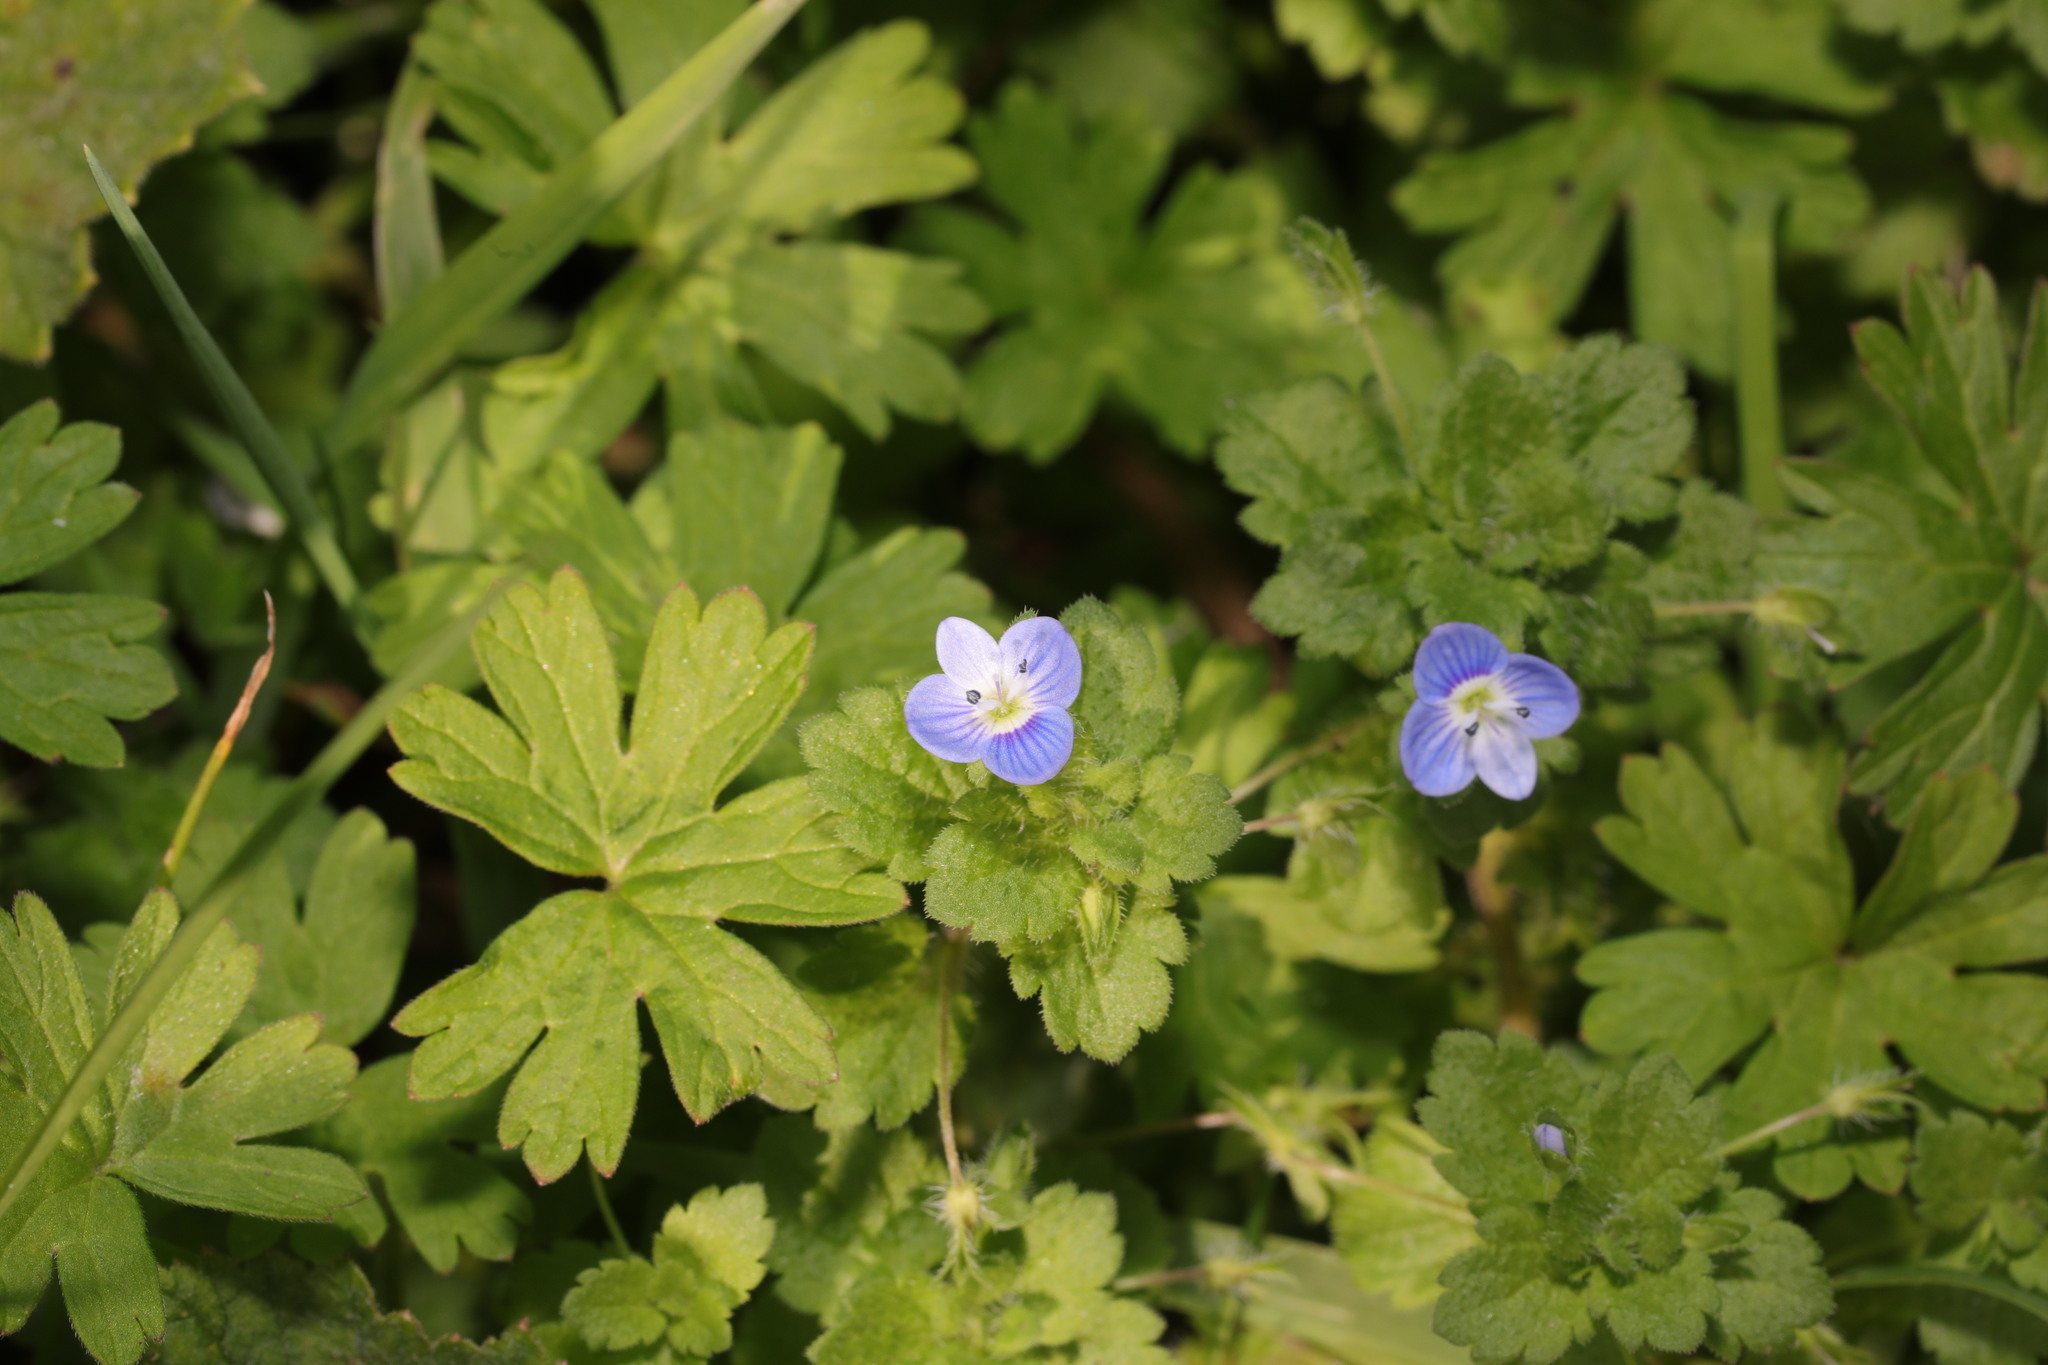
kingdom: Plantae
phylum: Tracheophyta
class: Magnoliopsida
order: Lamiales
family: Plantaginaceae
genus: Veronica
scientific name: Veronica persica
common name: Common field-speedwell
